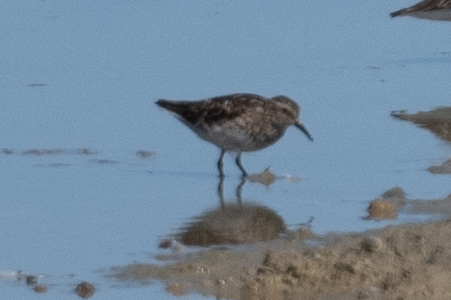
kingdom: Animalia
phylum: Chordata
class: Aves
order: Charadriiformes
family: Scolopacidae
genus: Calidris
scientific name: Calidris minutilla
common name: Least sandpiper
